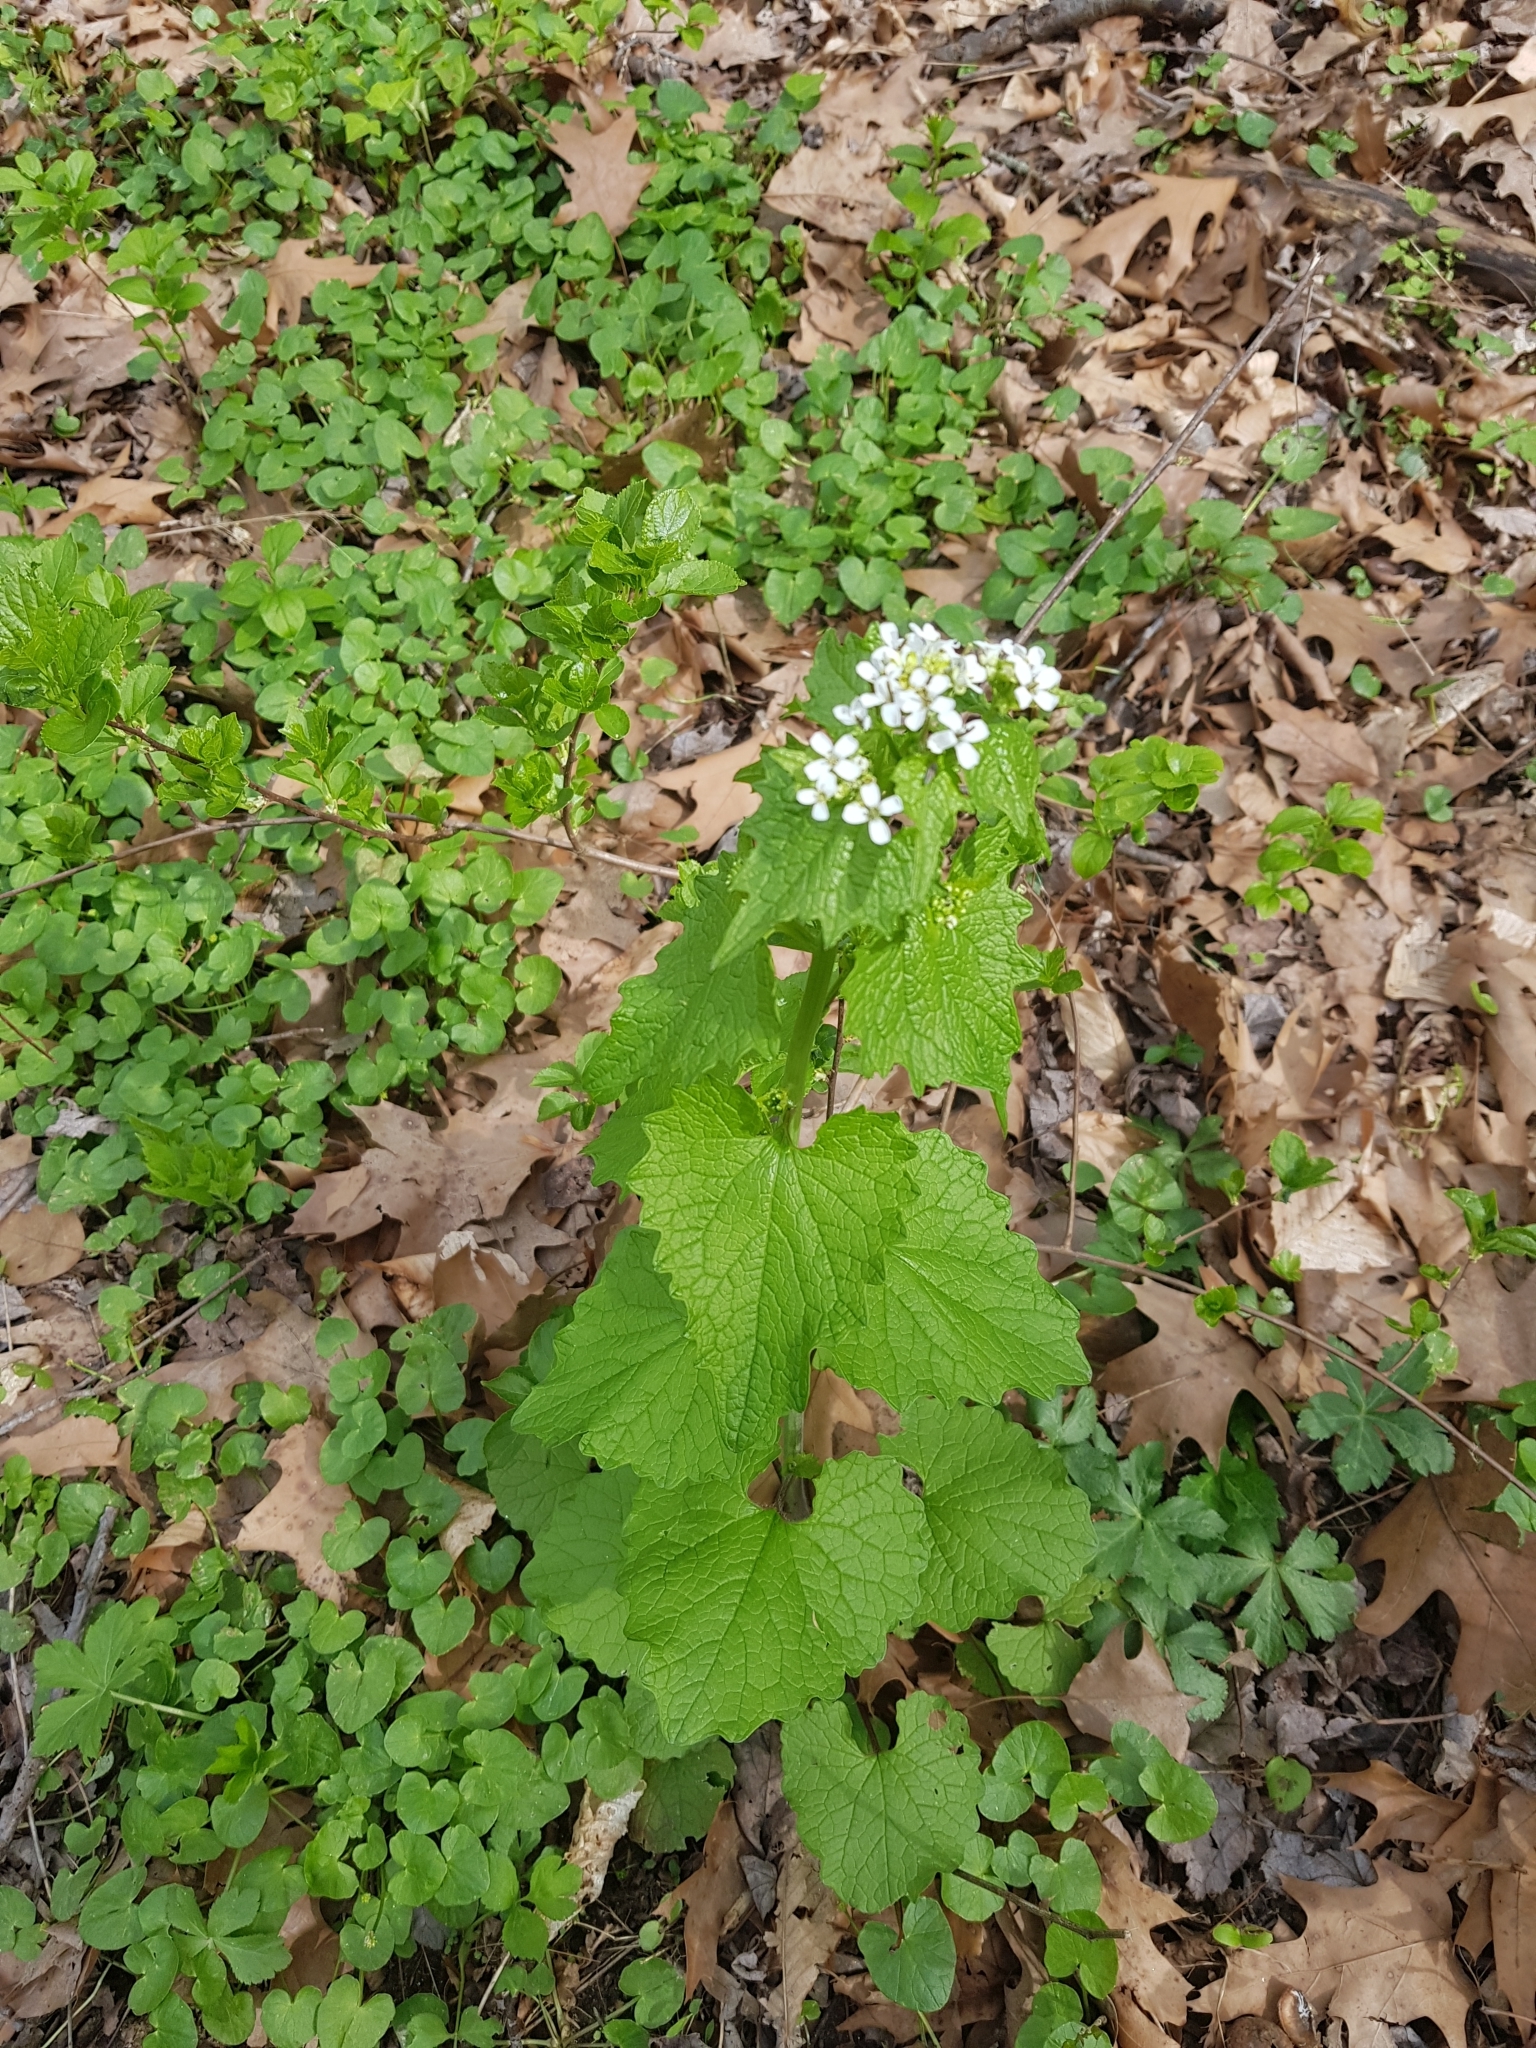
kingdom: Plantae
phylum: Tracheophyta
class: Magnoliopsida
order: Brassicales
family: Brassicaceae
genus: Alliaria
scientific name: Alliaria petiolata
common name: Garlic mustard
